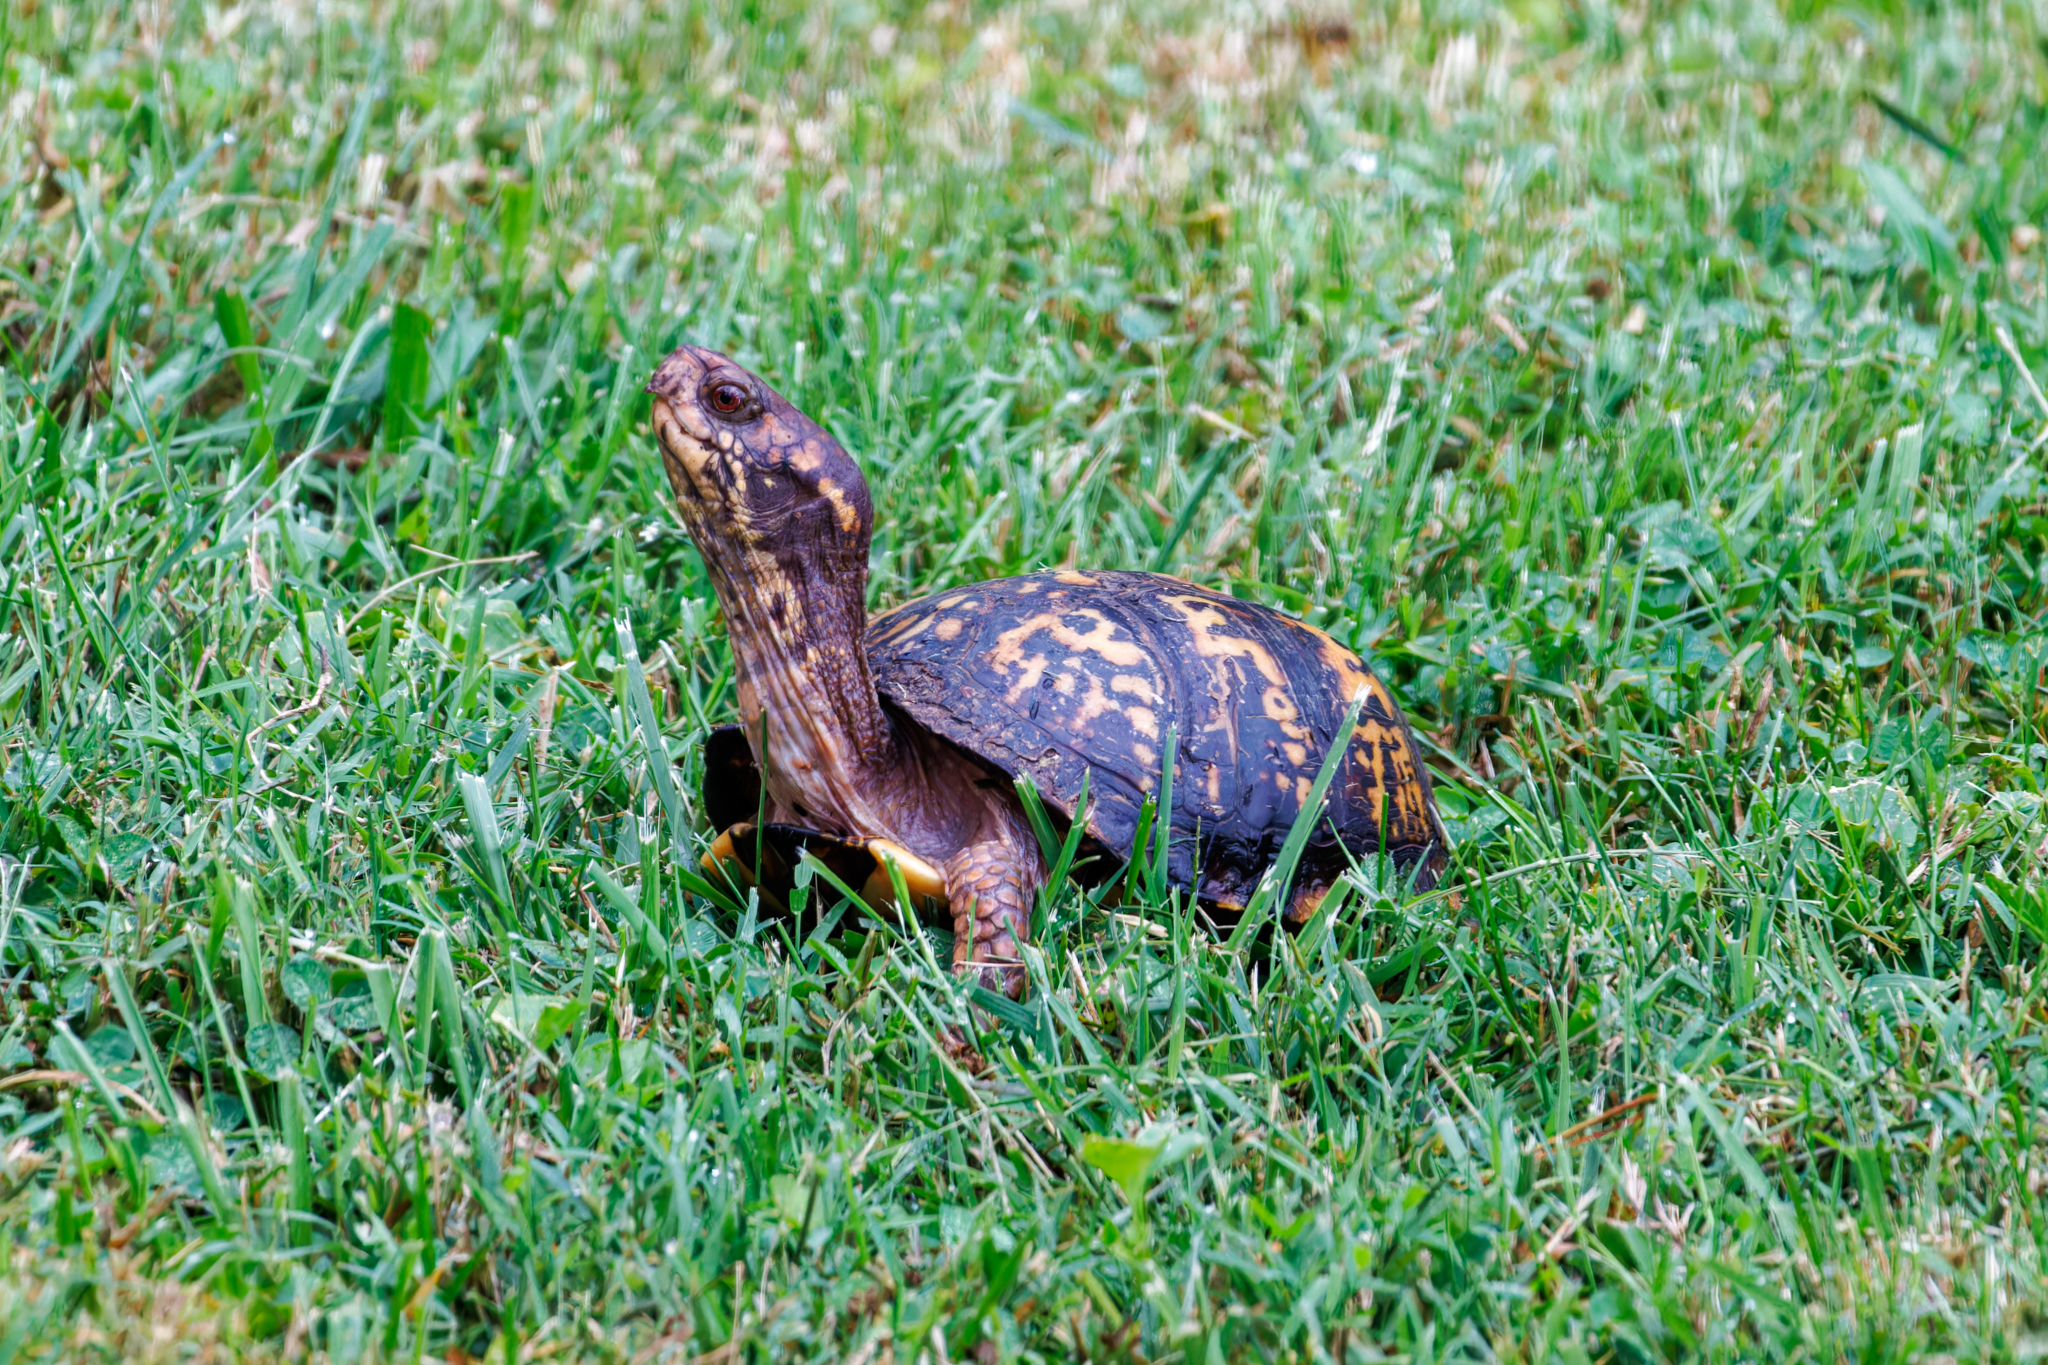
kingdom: Animalia
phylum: Chordata
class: Testudines
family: Emydidae
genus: Terrapene
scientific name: Terrapene carolina
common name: Common box turtle
